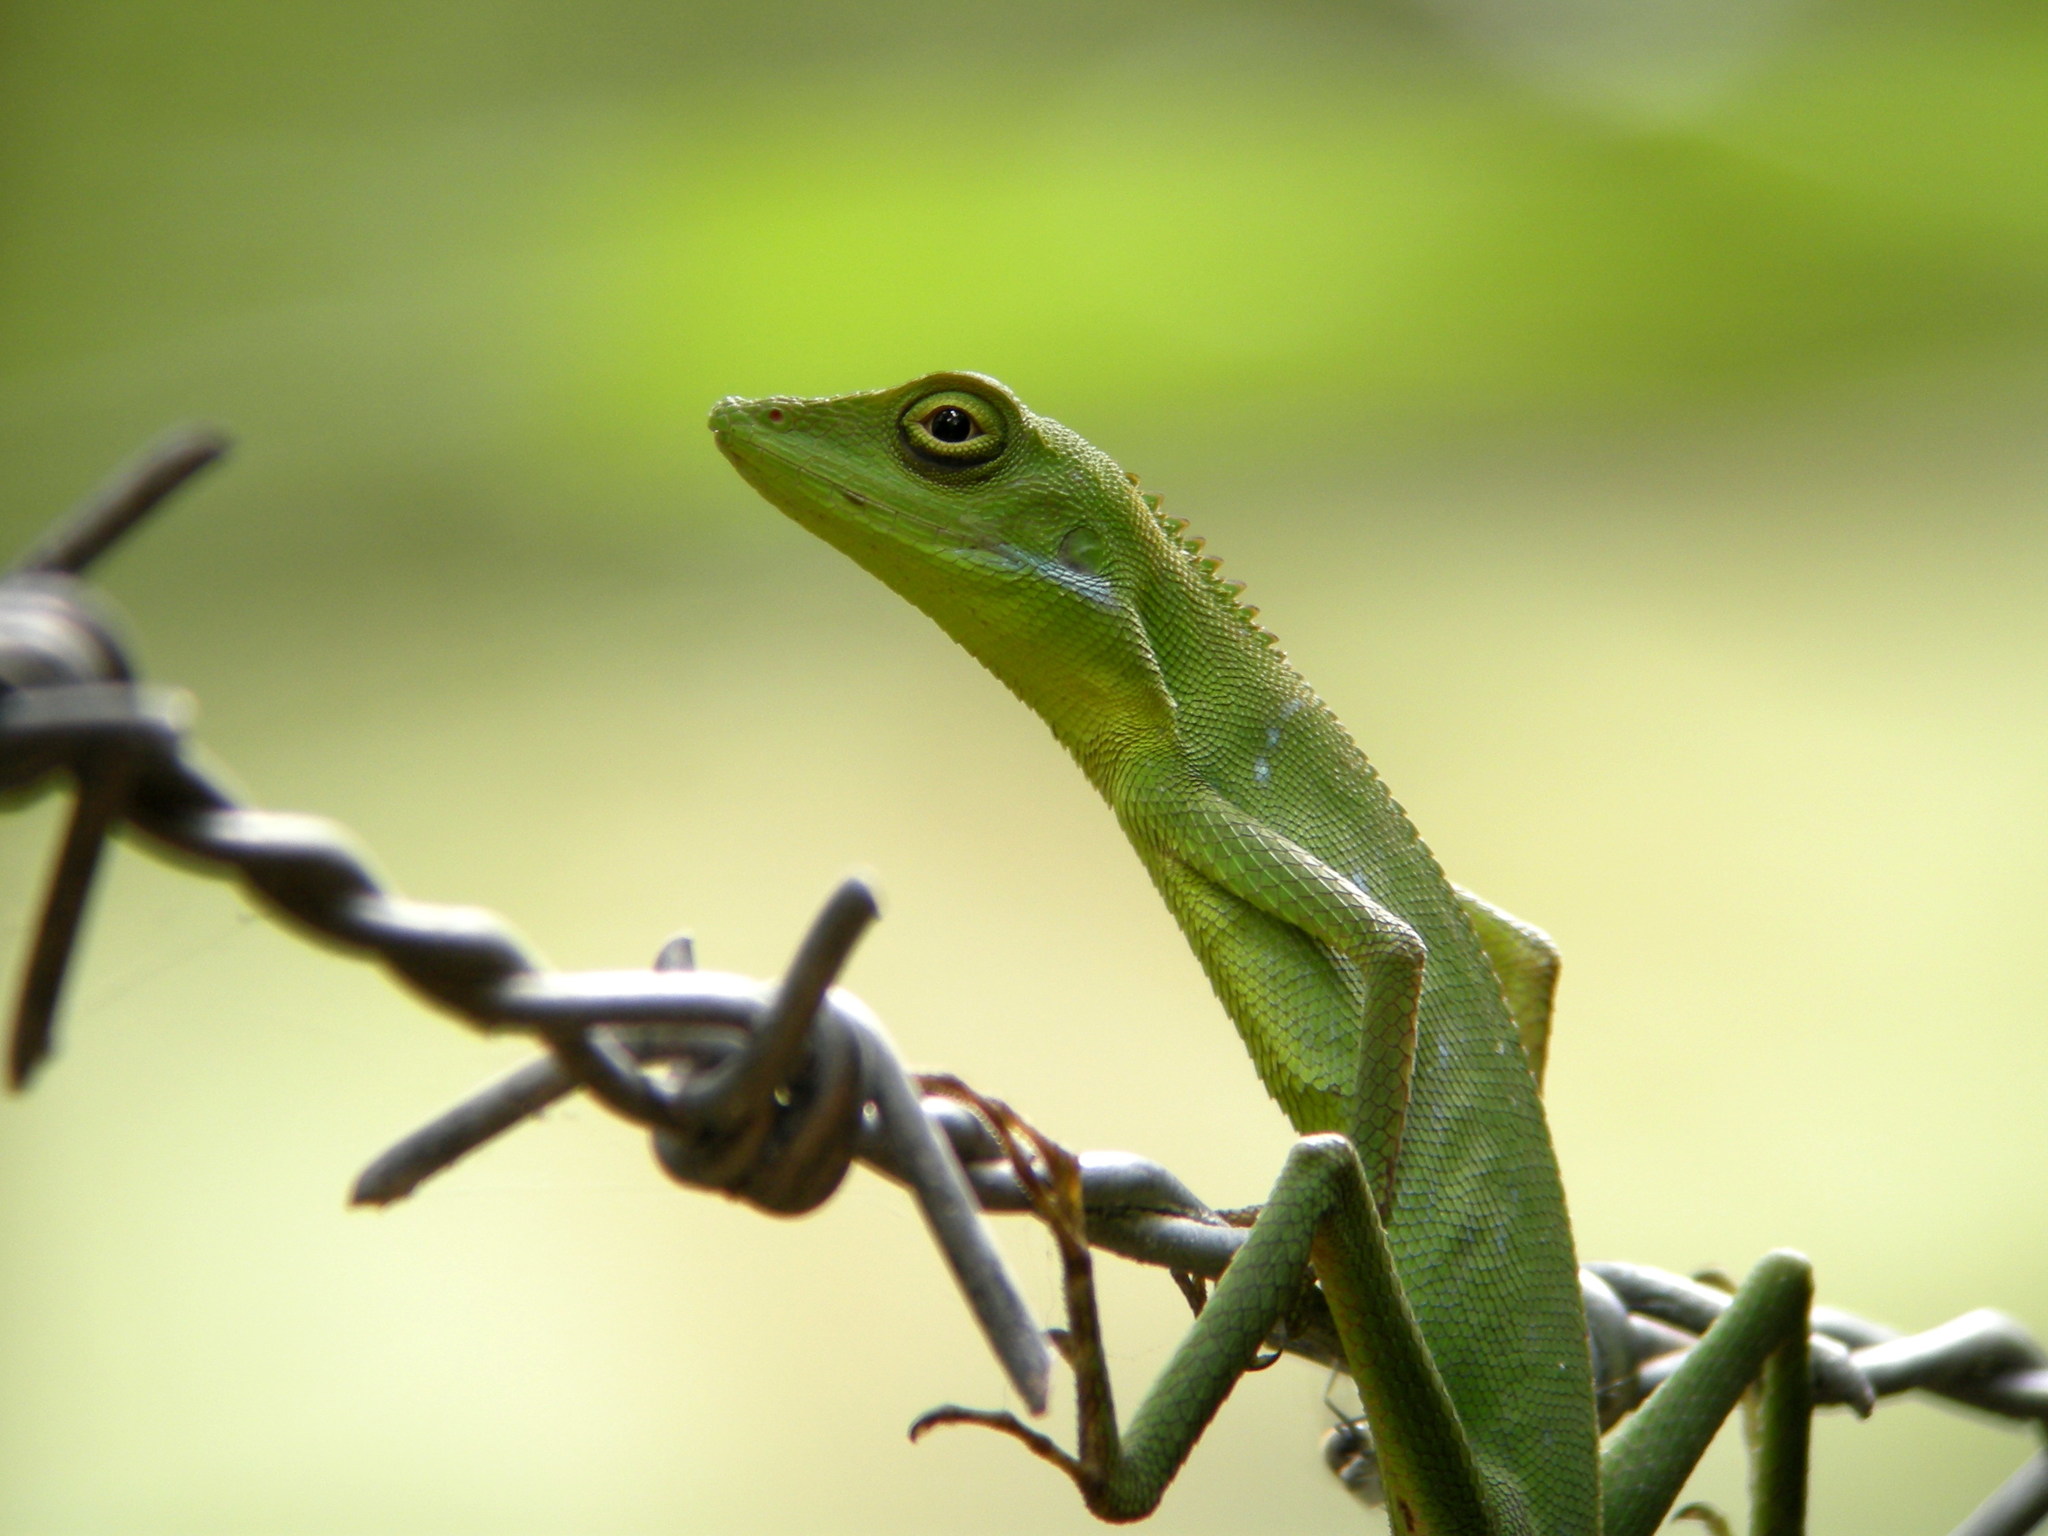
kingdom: Animalia
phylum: Chordata
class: Squamata
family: Agamidae
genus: Bronchocela
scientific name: Bronchocela rayaensis
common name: Gunung raya green-crested lizard
